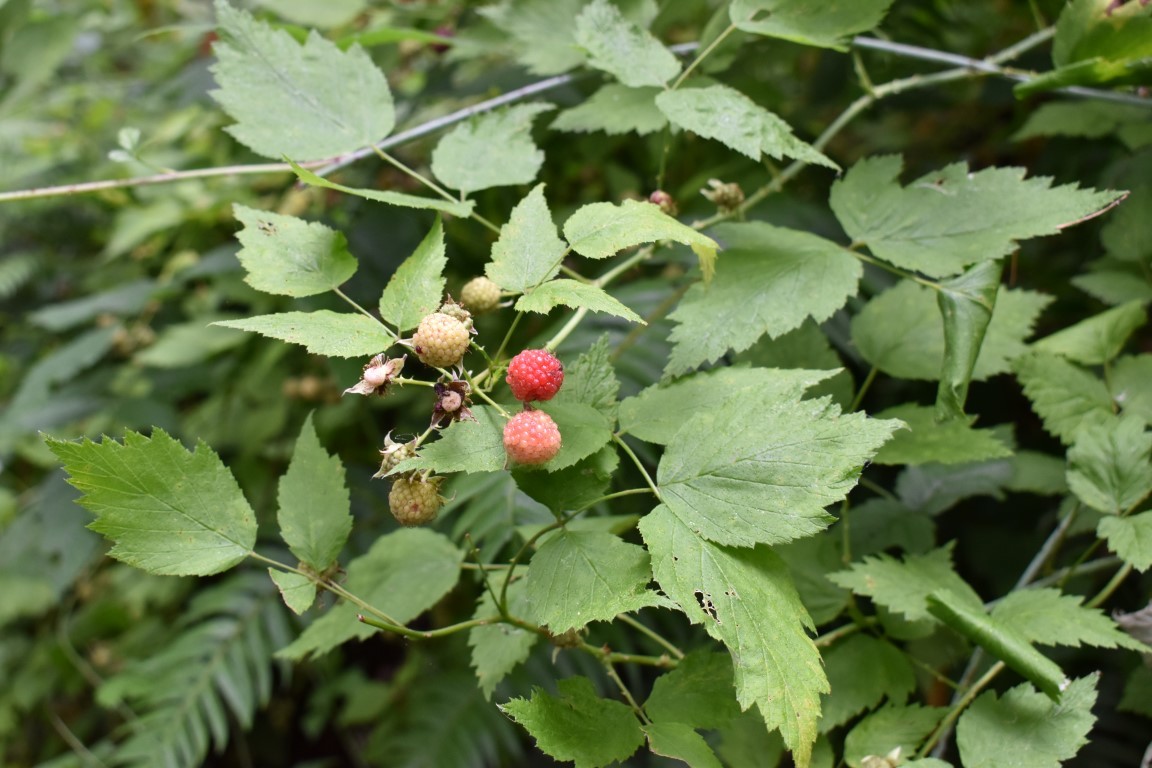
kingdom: Plantae
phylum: Tracheophyta
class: Magnoliopsida
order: Rosales
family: Rosaceae
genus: Rubus
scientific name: Rubus leucodermis
